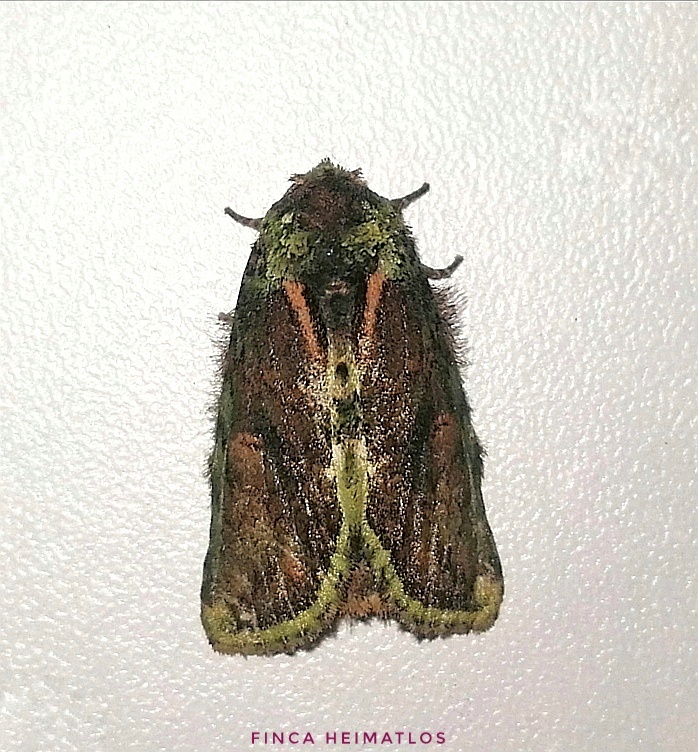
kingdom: Animalia
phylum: Arthropoda
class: Insecta
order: Lepidoptera
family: Notodontidae
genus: Disphragis
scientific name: Disphragis carantis
